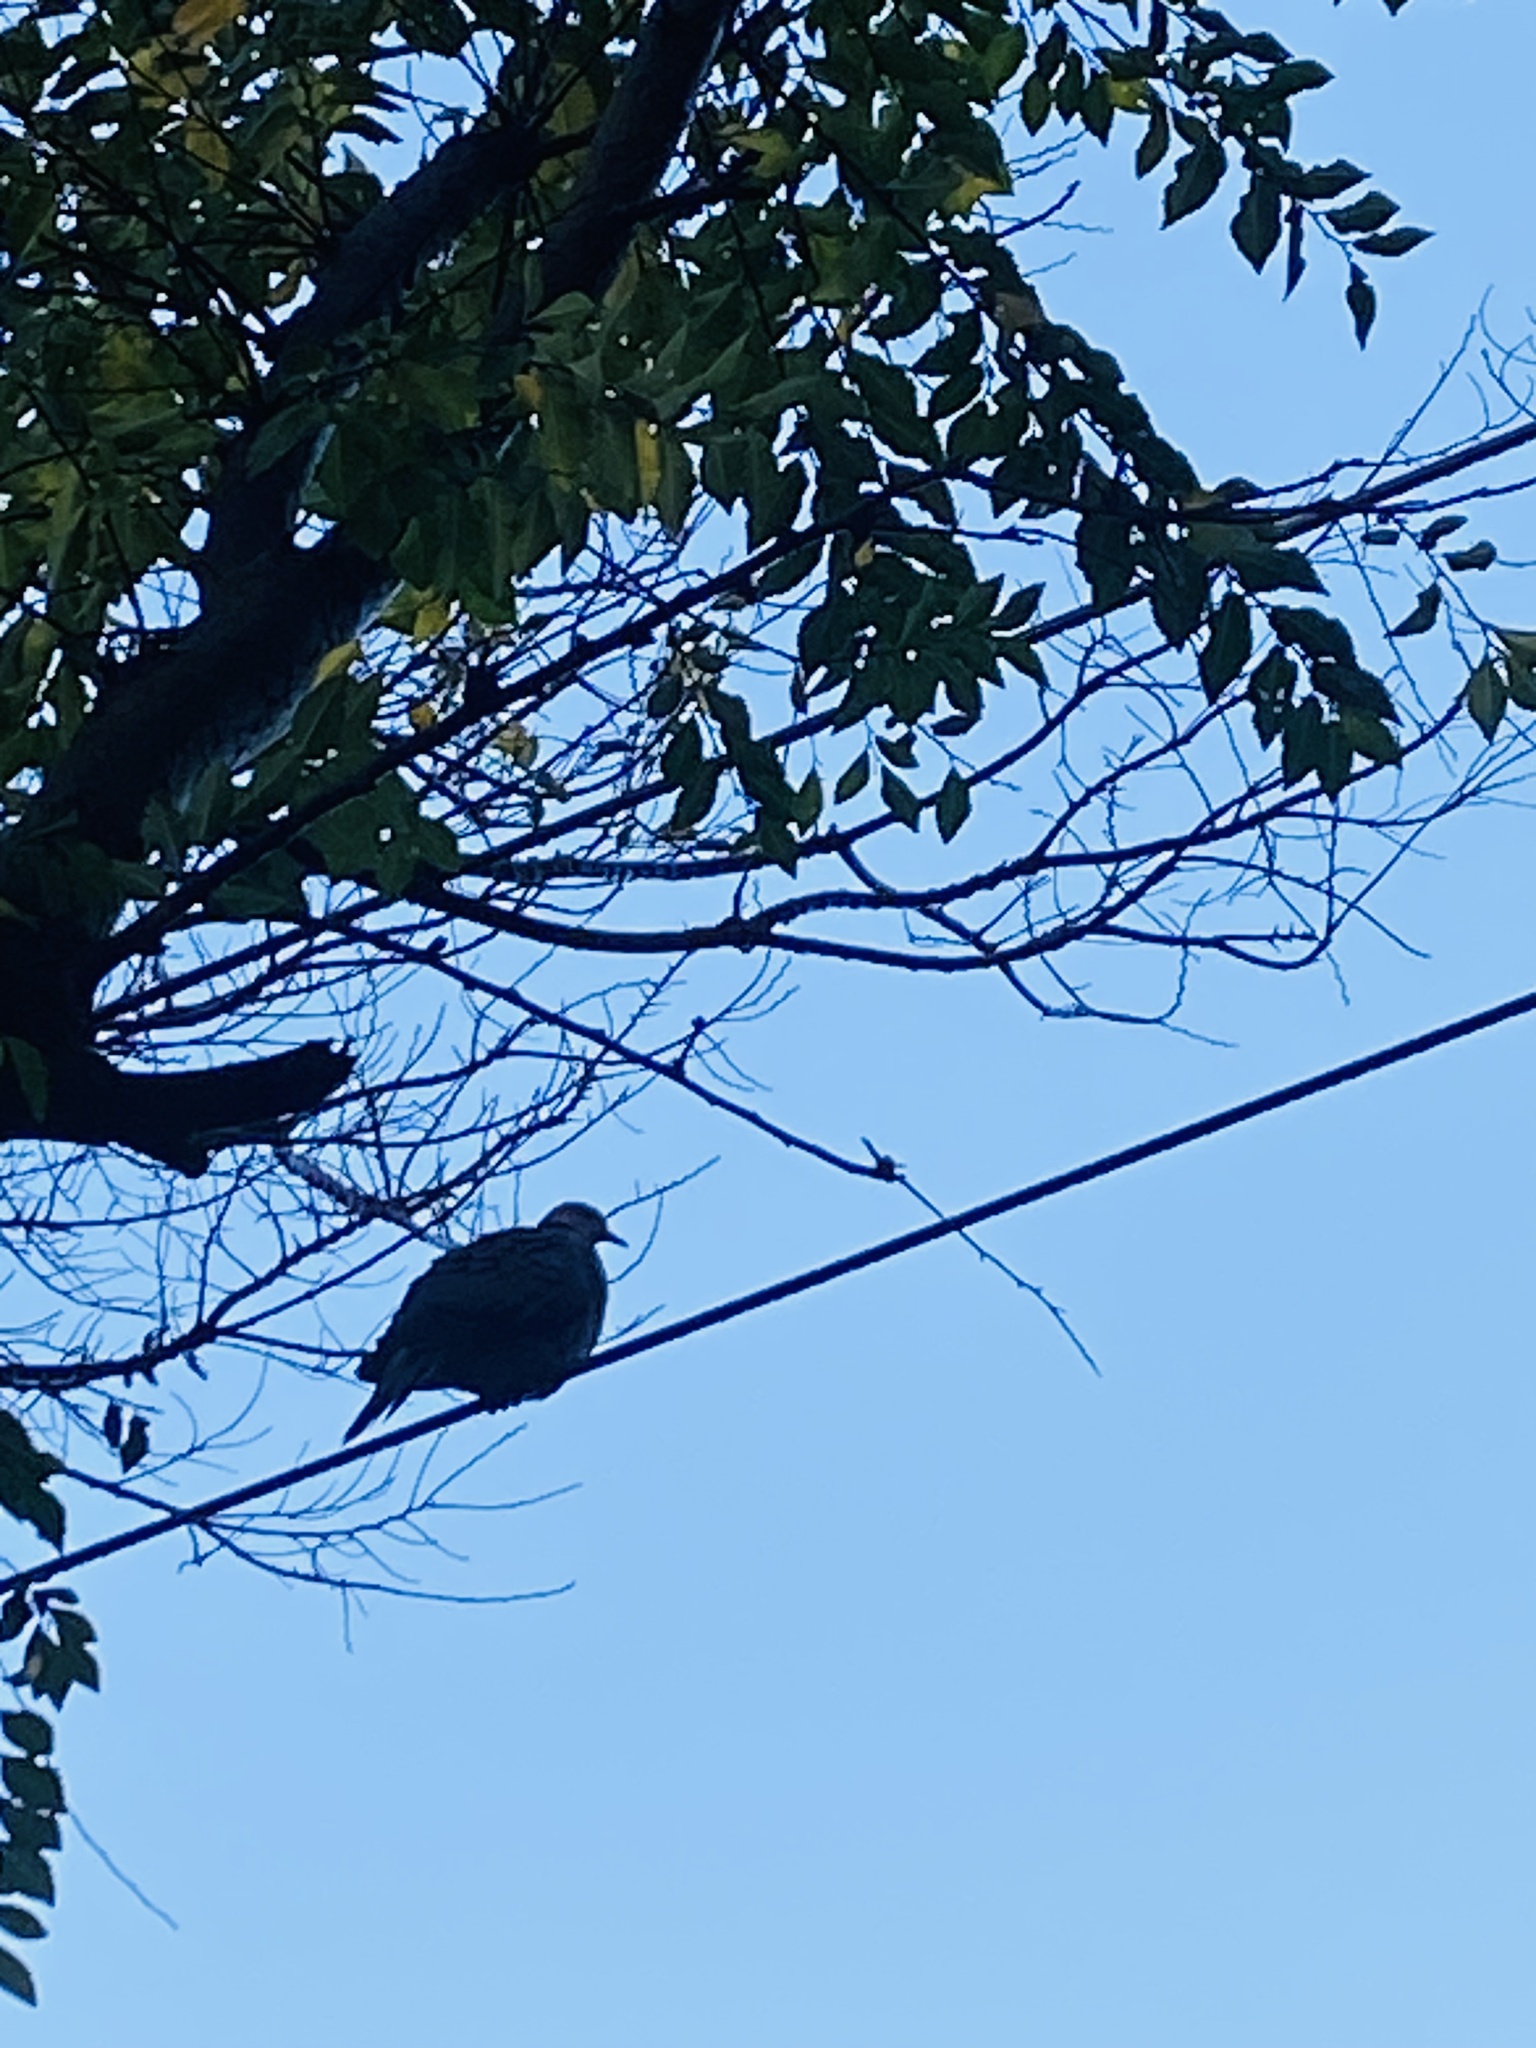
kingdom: Animalia
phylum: Chordata
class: Aves
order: Columbiformes
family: Columbidae
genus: Streptopelia
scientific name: Streptopelia semitorquata
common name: Red-eyed dove
